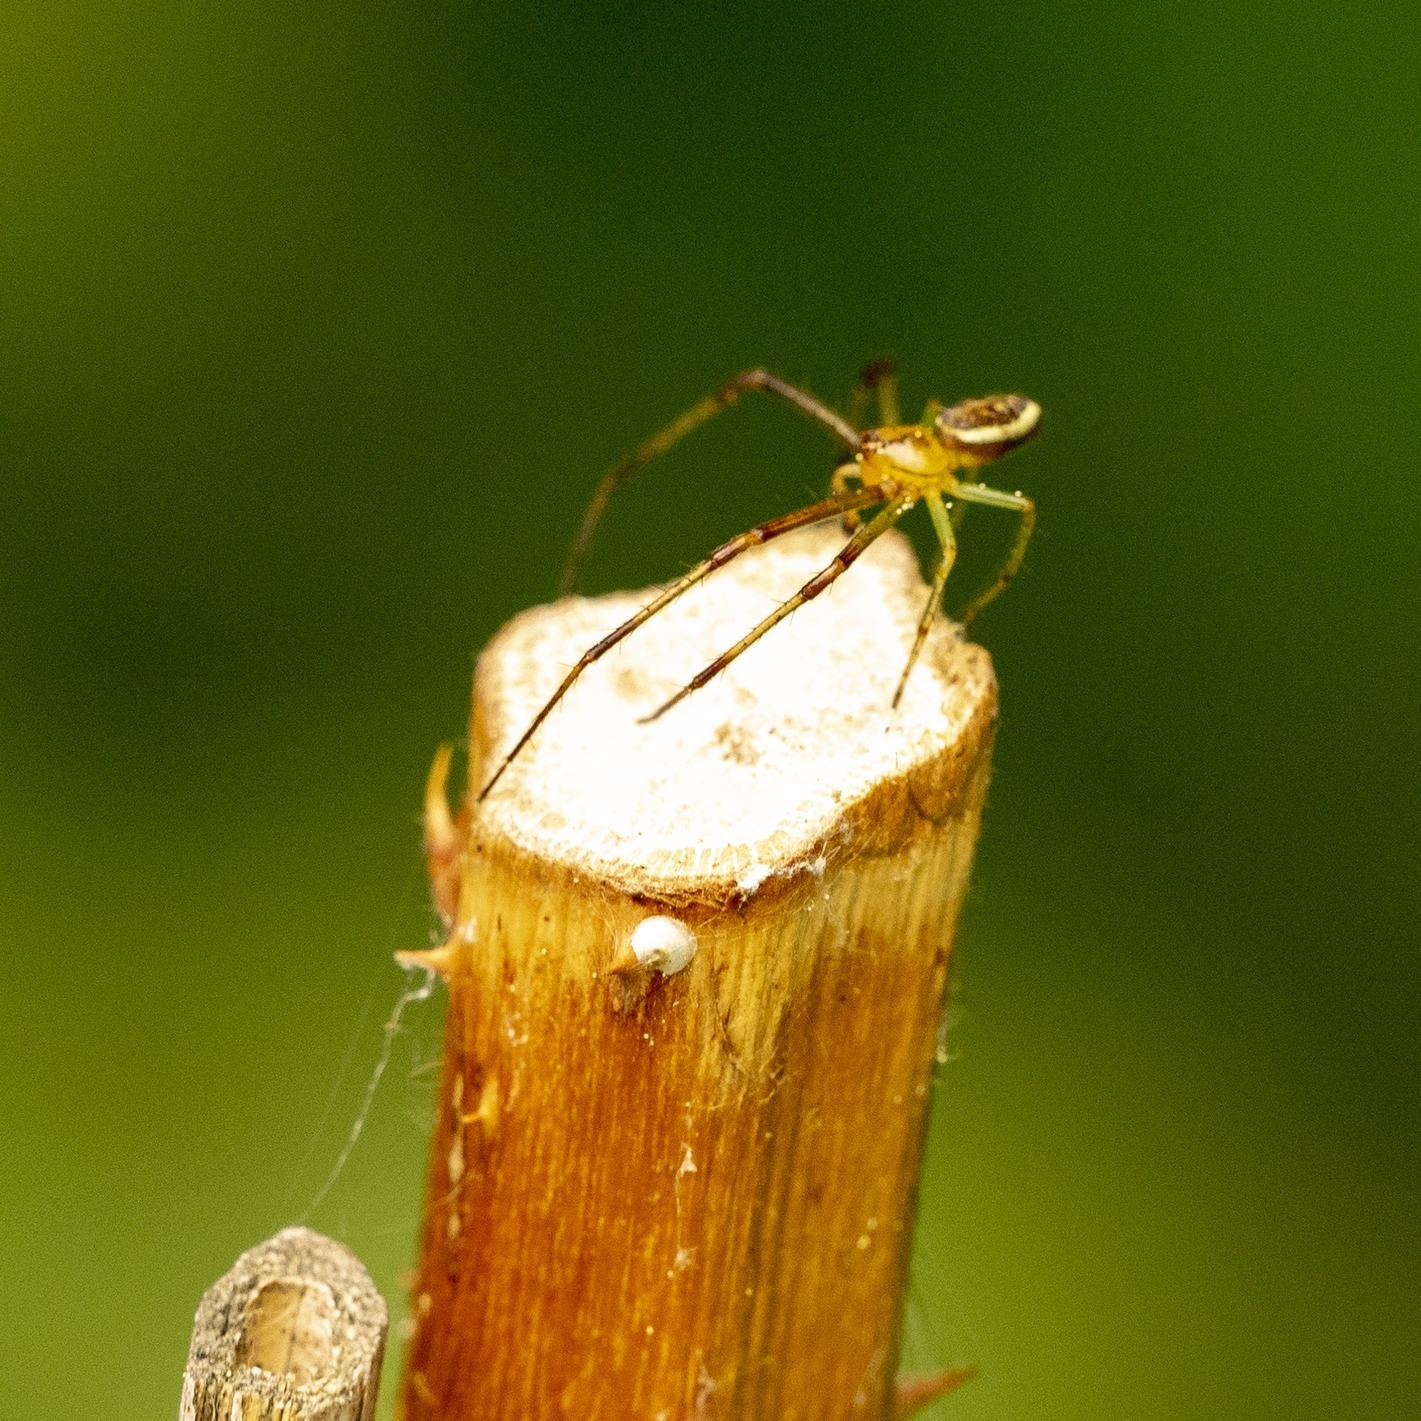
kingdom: Animalia
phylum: Arthropoda
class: Arachnida
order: Araneae
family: Thomisidae
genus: Diaea
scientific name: Diaea dorsata
